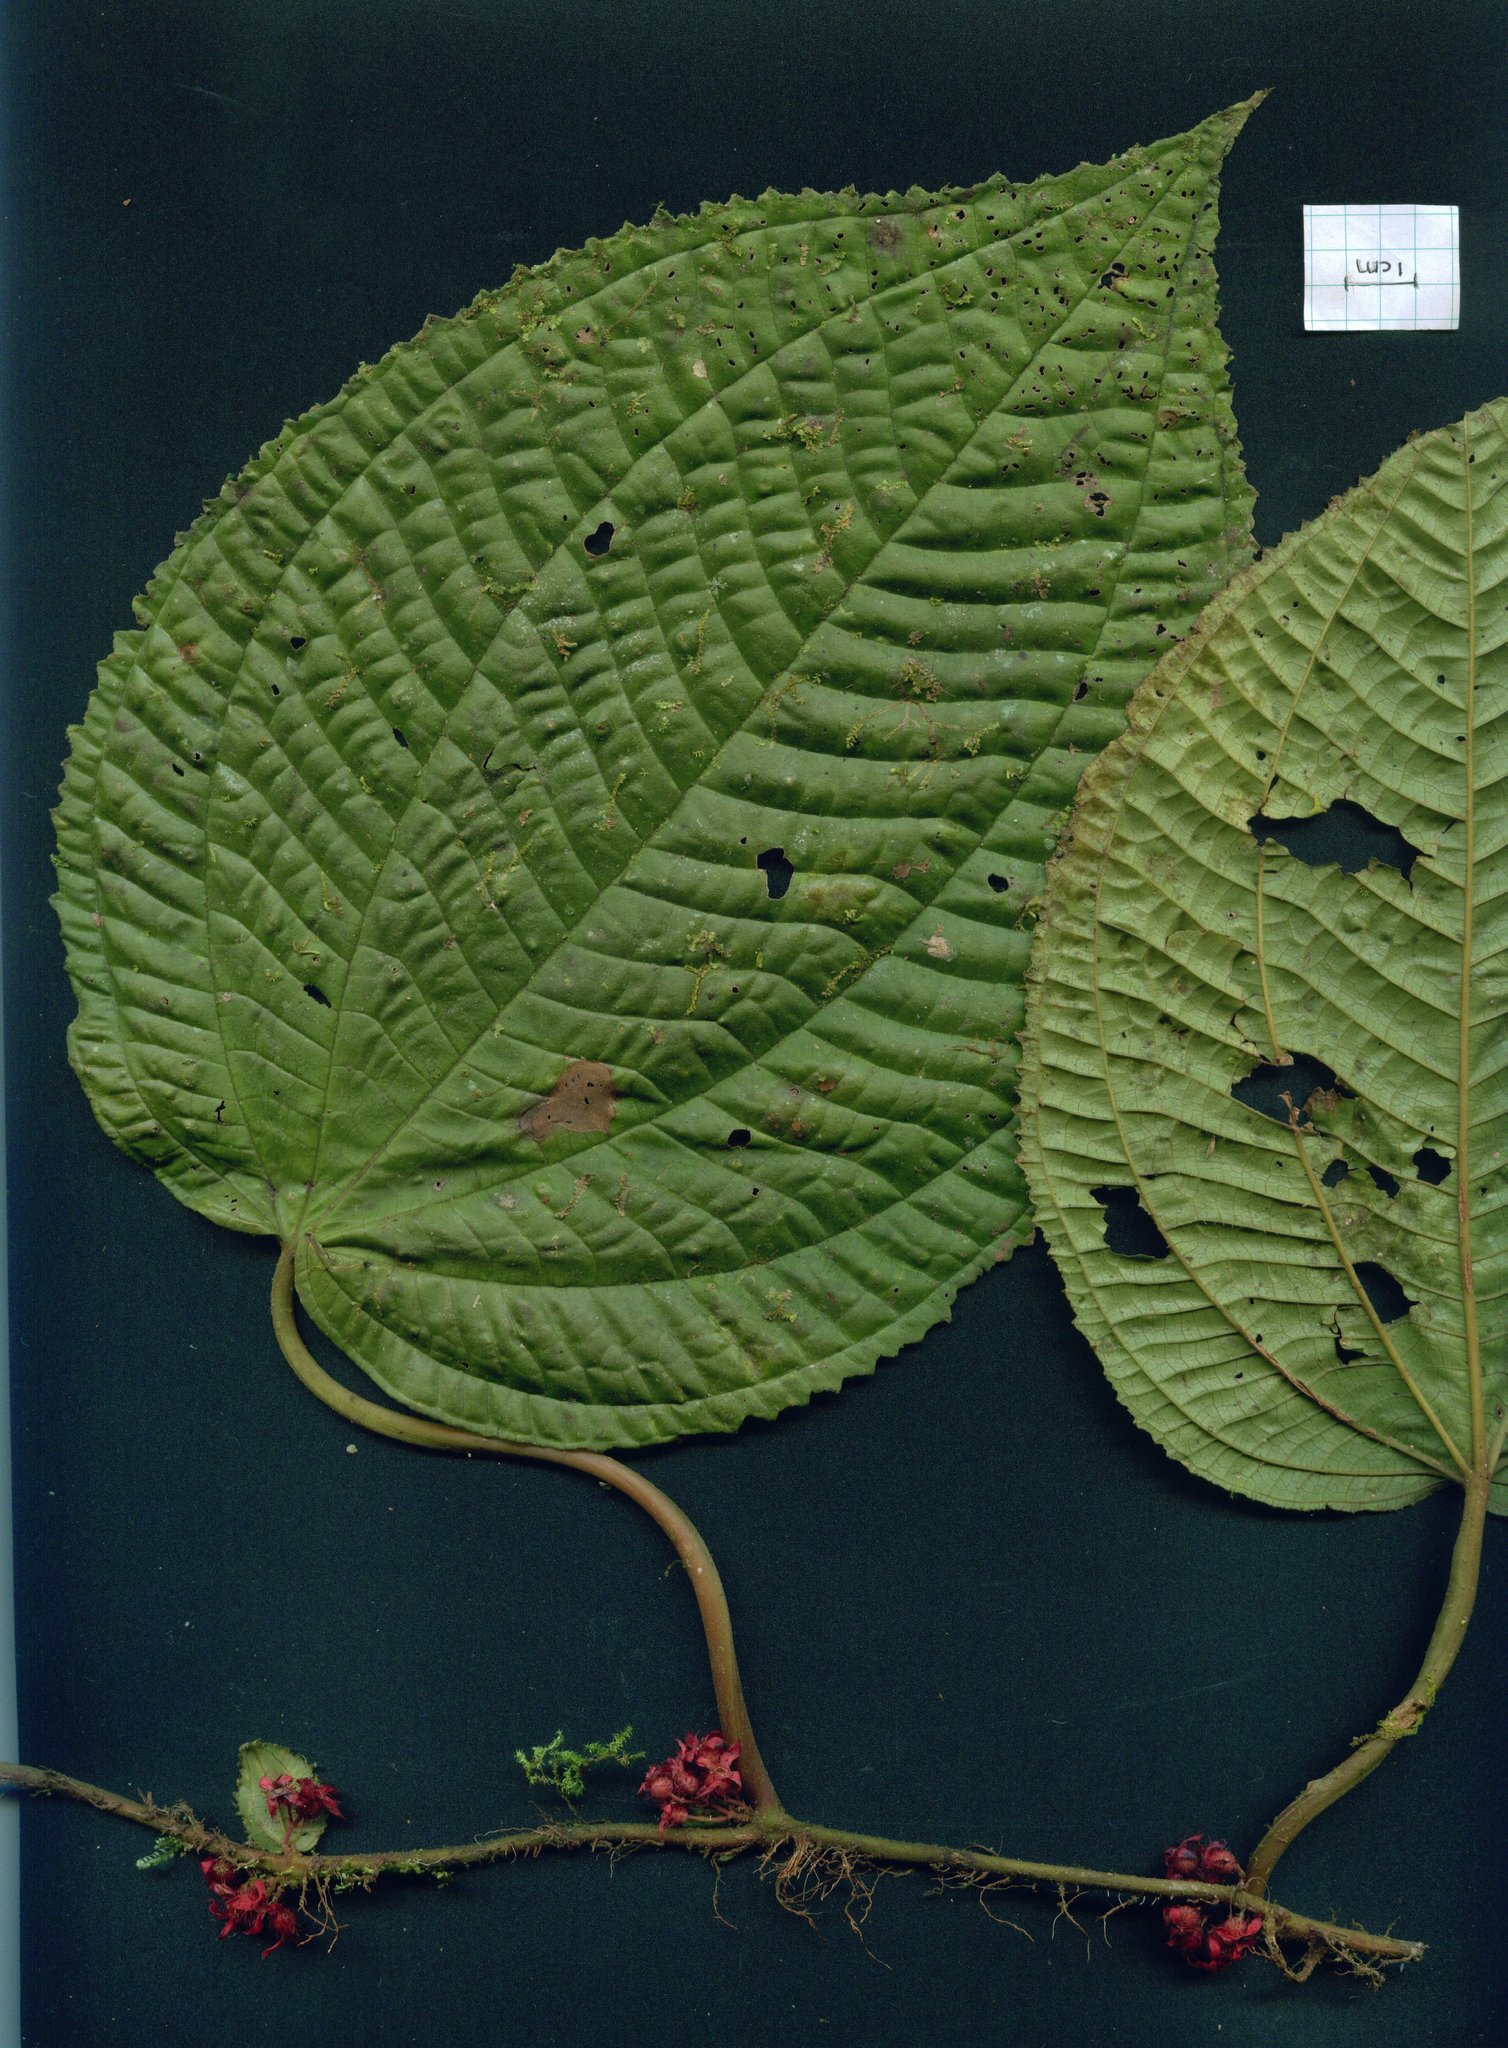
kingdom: Plantae
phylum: Tracheophyta
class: Magnoliopsida
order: Myrtales
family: Melastomataceae
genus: Miconia
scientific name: Miconia neoepiphytica
